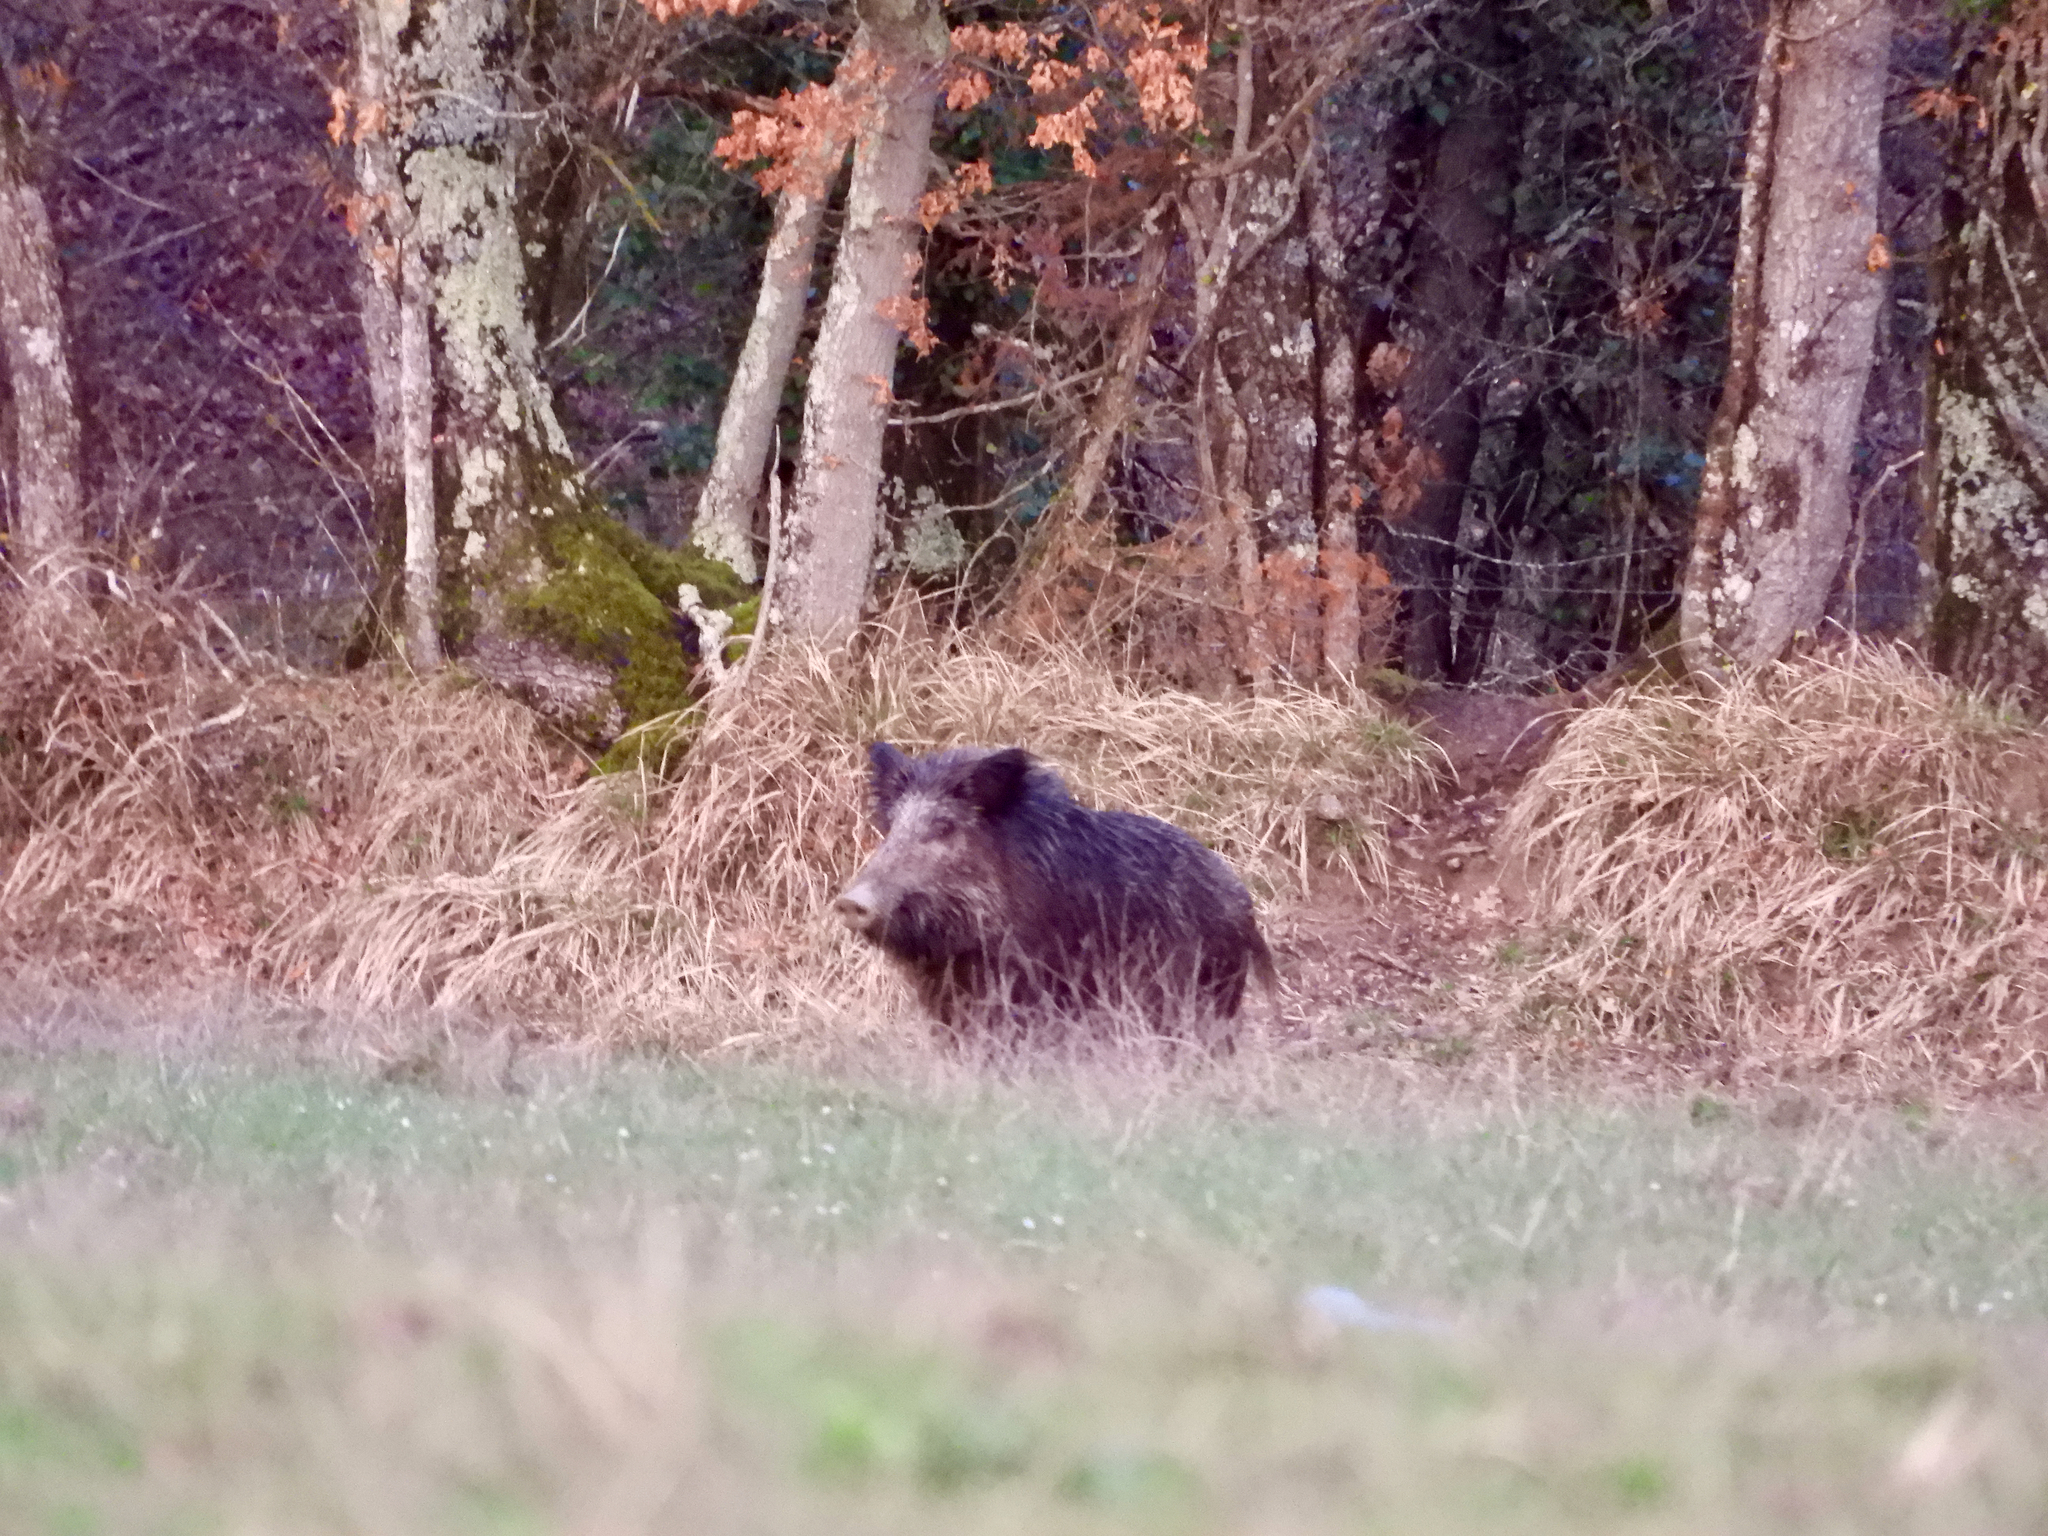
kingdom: Animalia
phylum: Chordata
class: Mammalia
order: Artiodactyla
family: Suidae
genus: Sus
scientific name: Sus scrofa
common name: Wild boar
